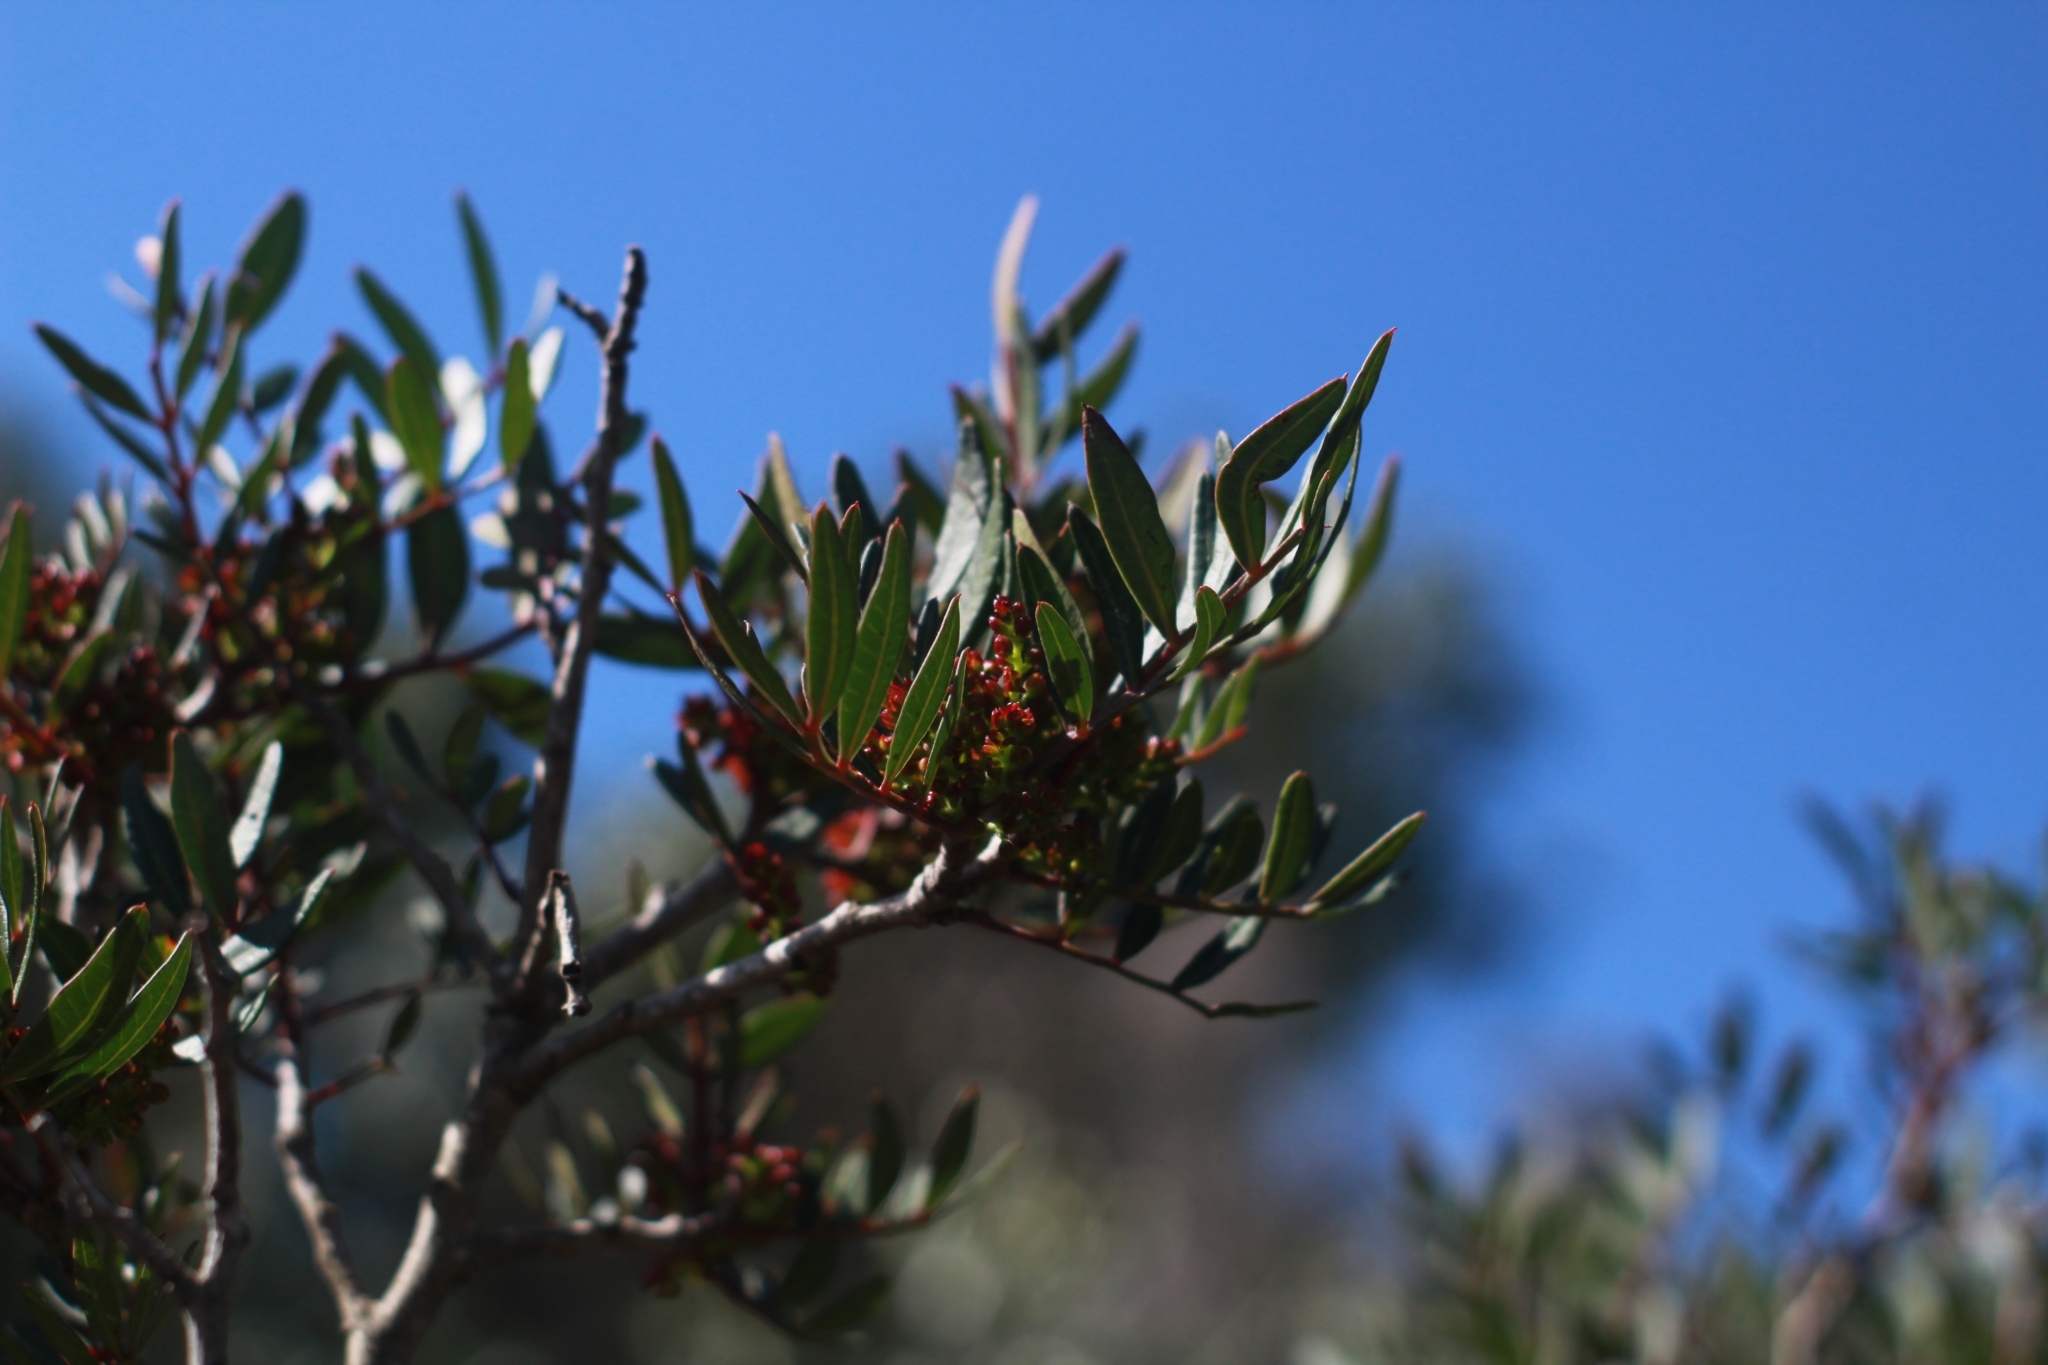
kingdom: Plantae
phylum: Tracheophyta
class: Magnoliopsida
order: Sapindales
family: Anacardiaceae
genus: Pistacia
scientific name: Pistacia lentiscus
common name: Lentisk
